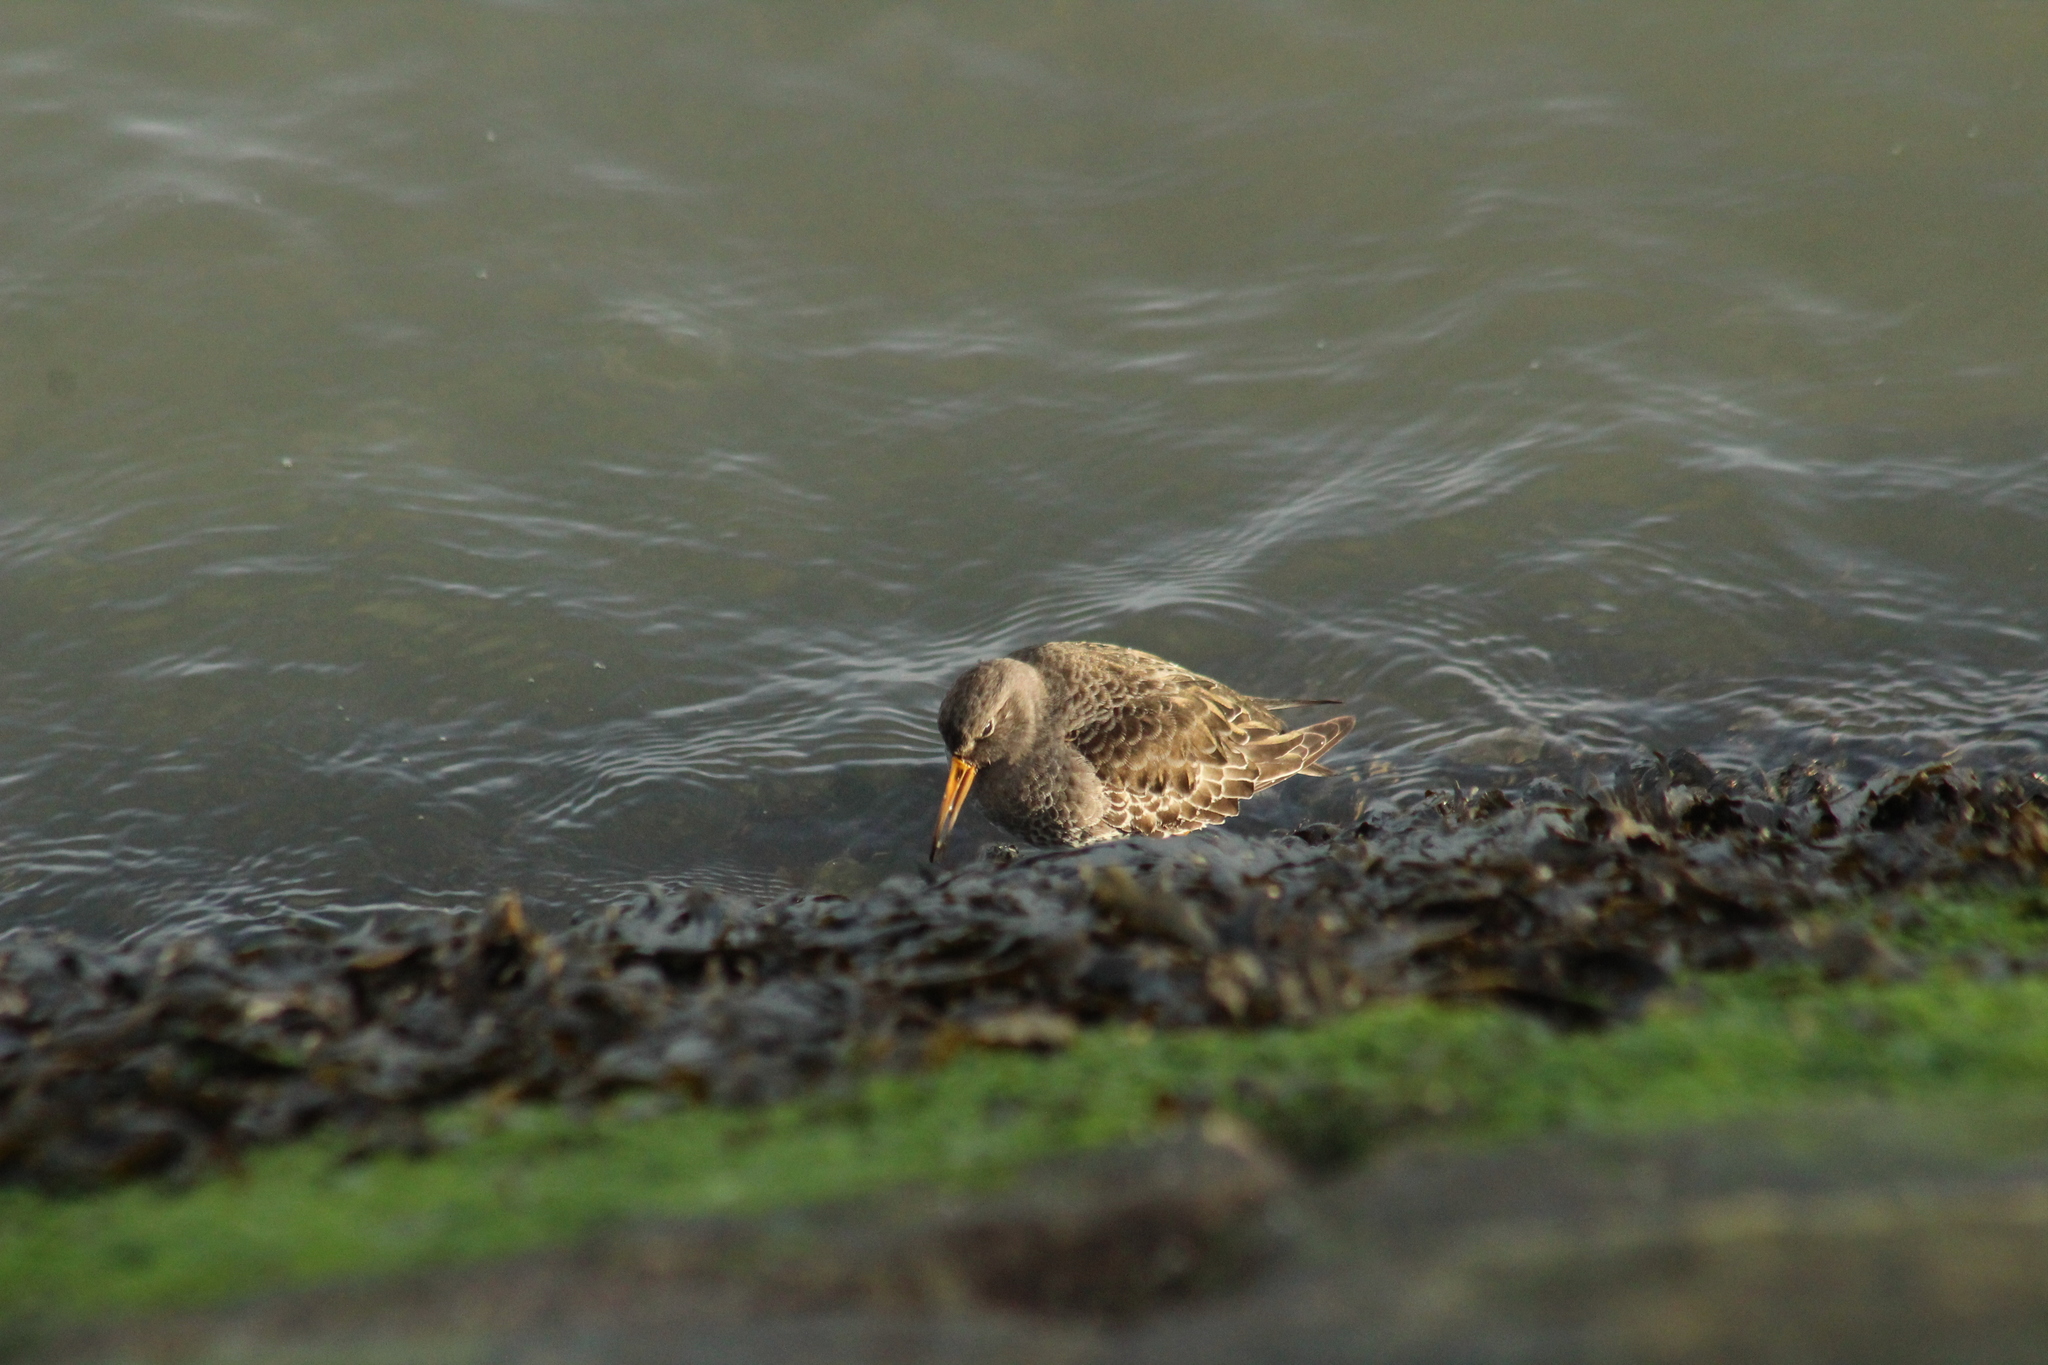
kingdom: Animalia
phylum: Chordata
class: Aves
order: Charadriiformes
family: Scolopacidae
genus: Calidris
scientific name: Calidris maritima
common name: Purple sandpiper
